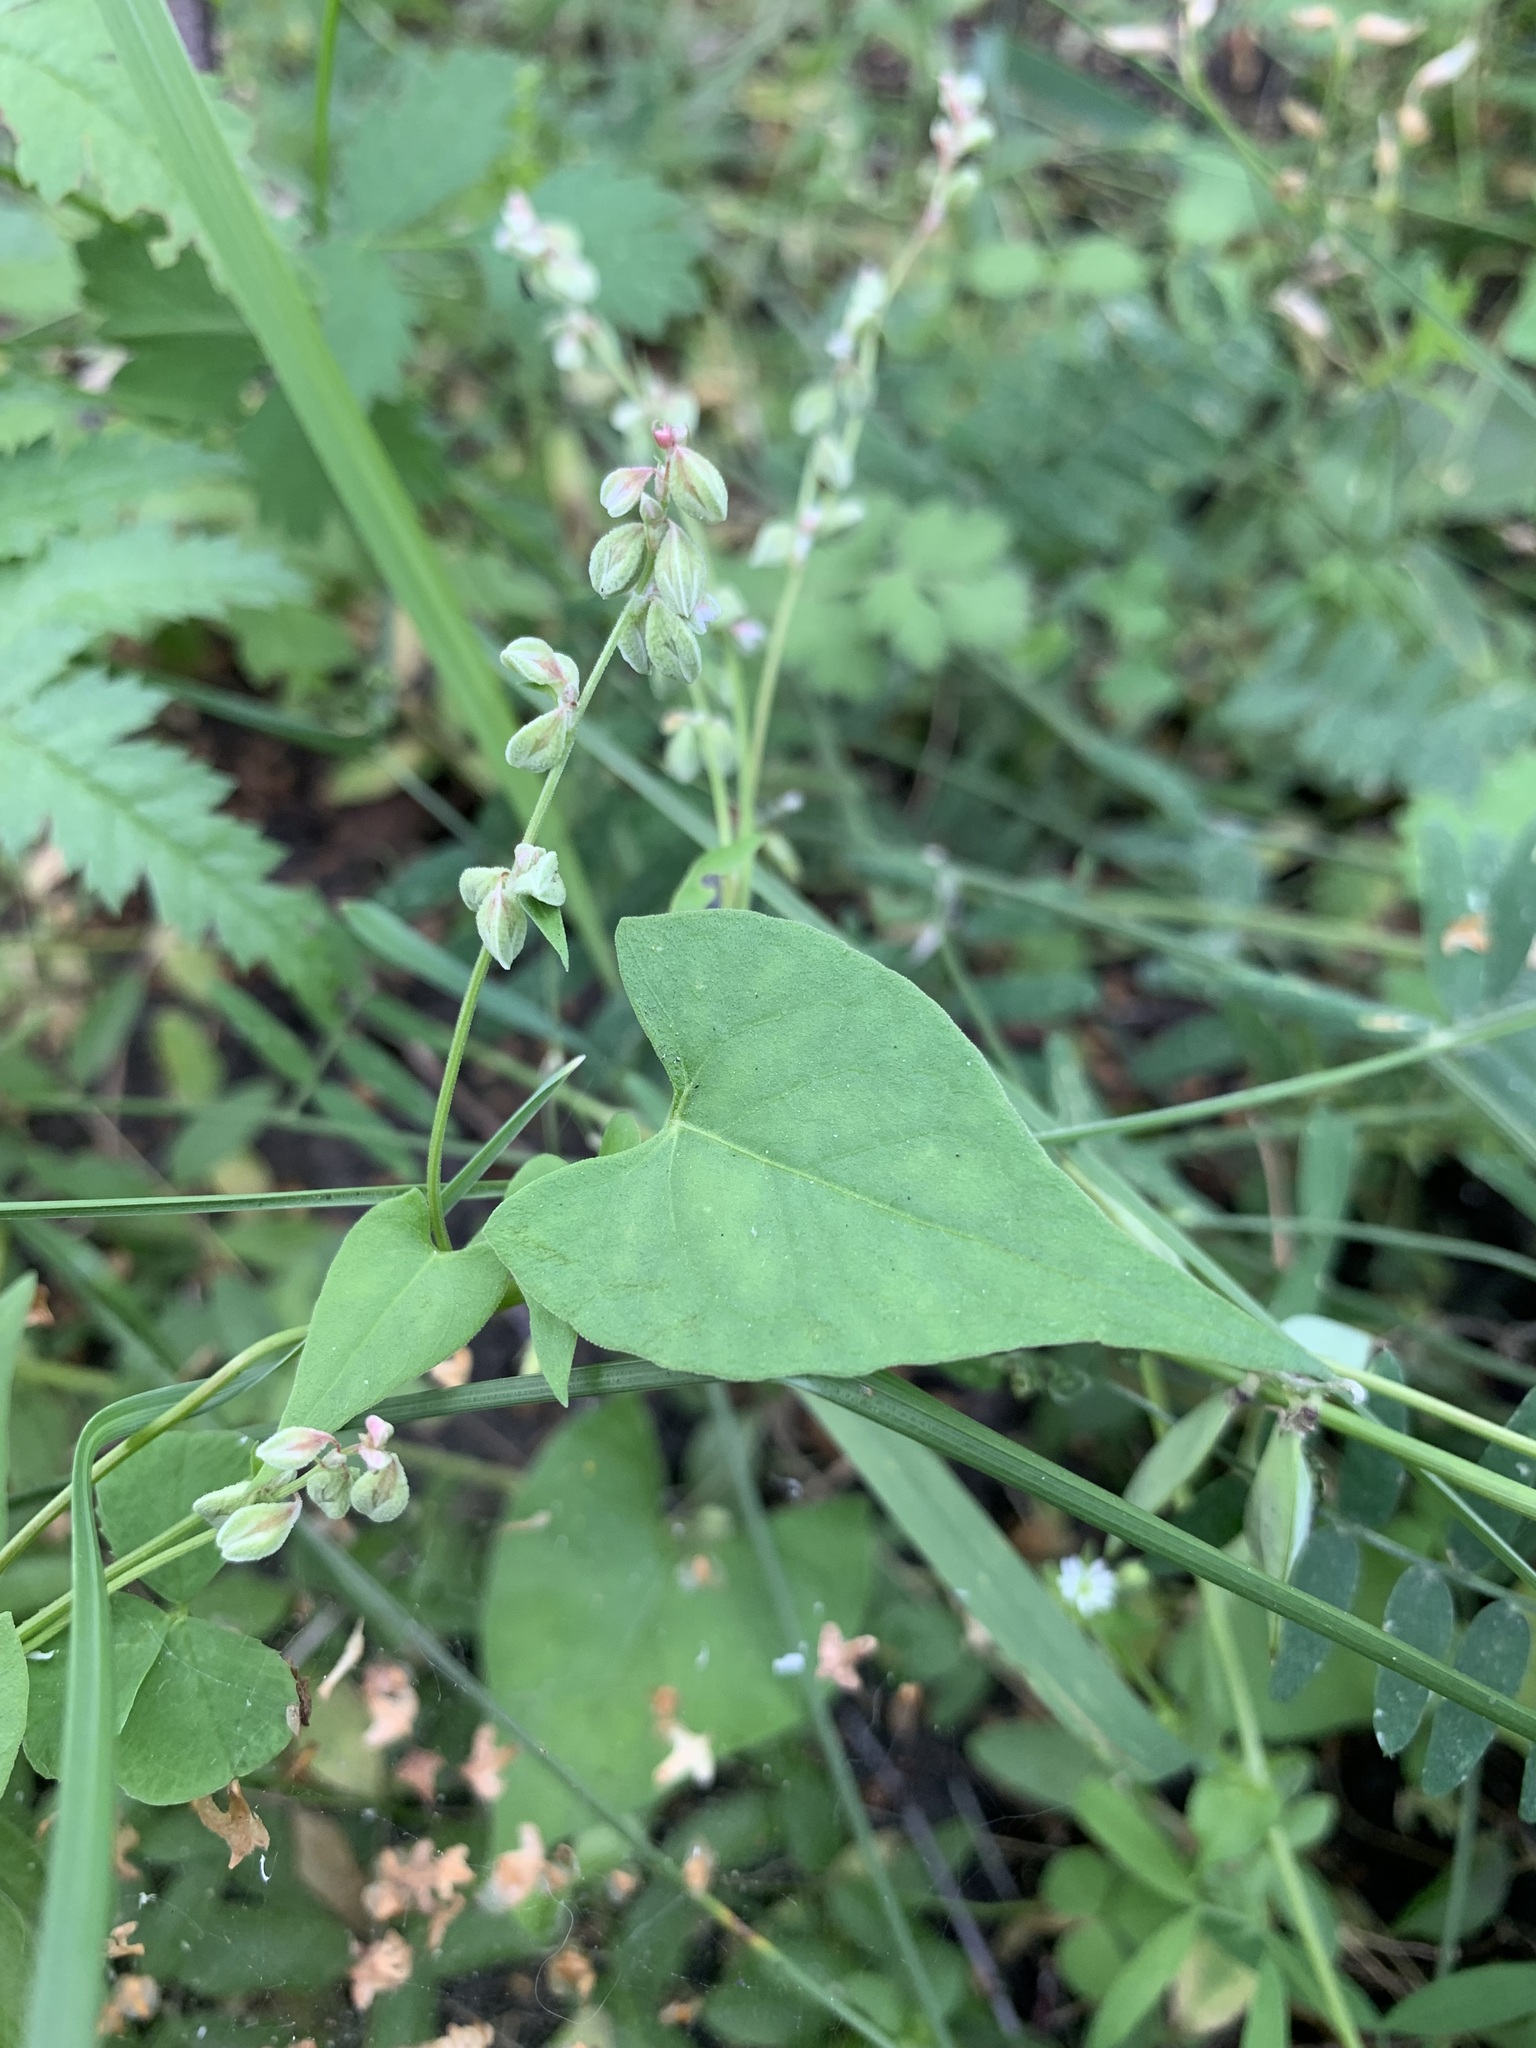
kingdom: Plantae
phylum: Tracheophyta
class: Magnoliopsida
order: Caryophyllales
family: Polygonaceae
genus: Fallopia
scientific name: Fallopia convolvulus
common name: Black bindweed
